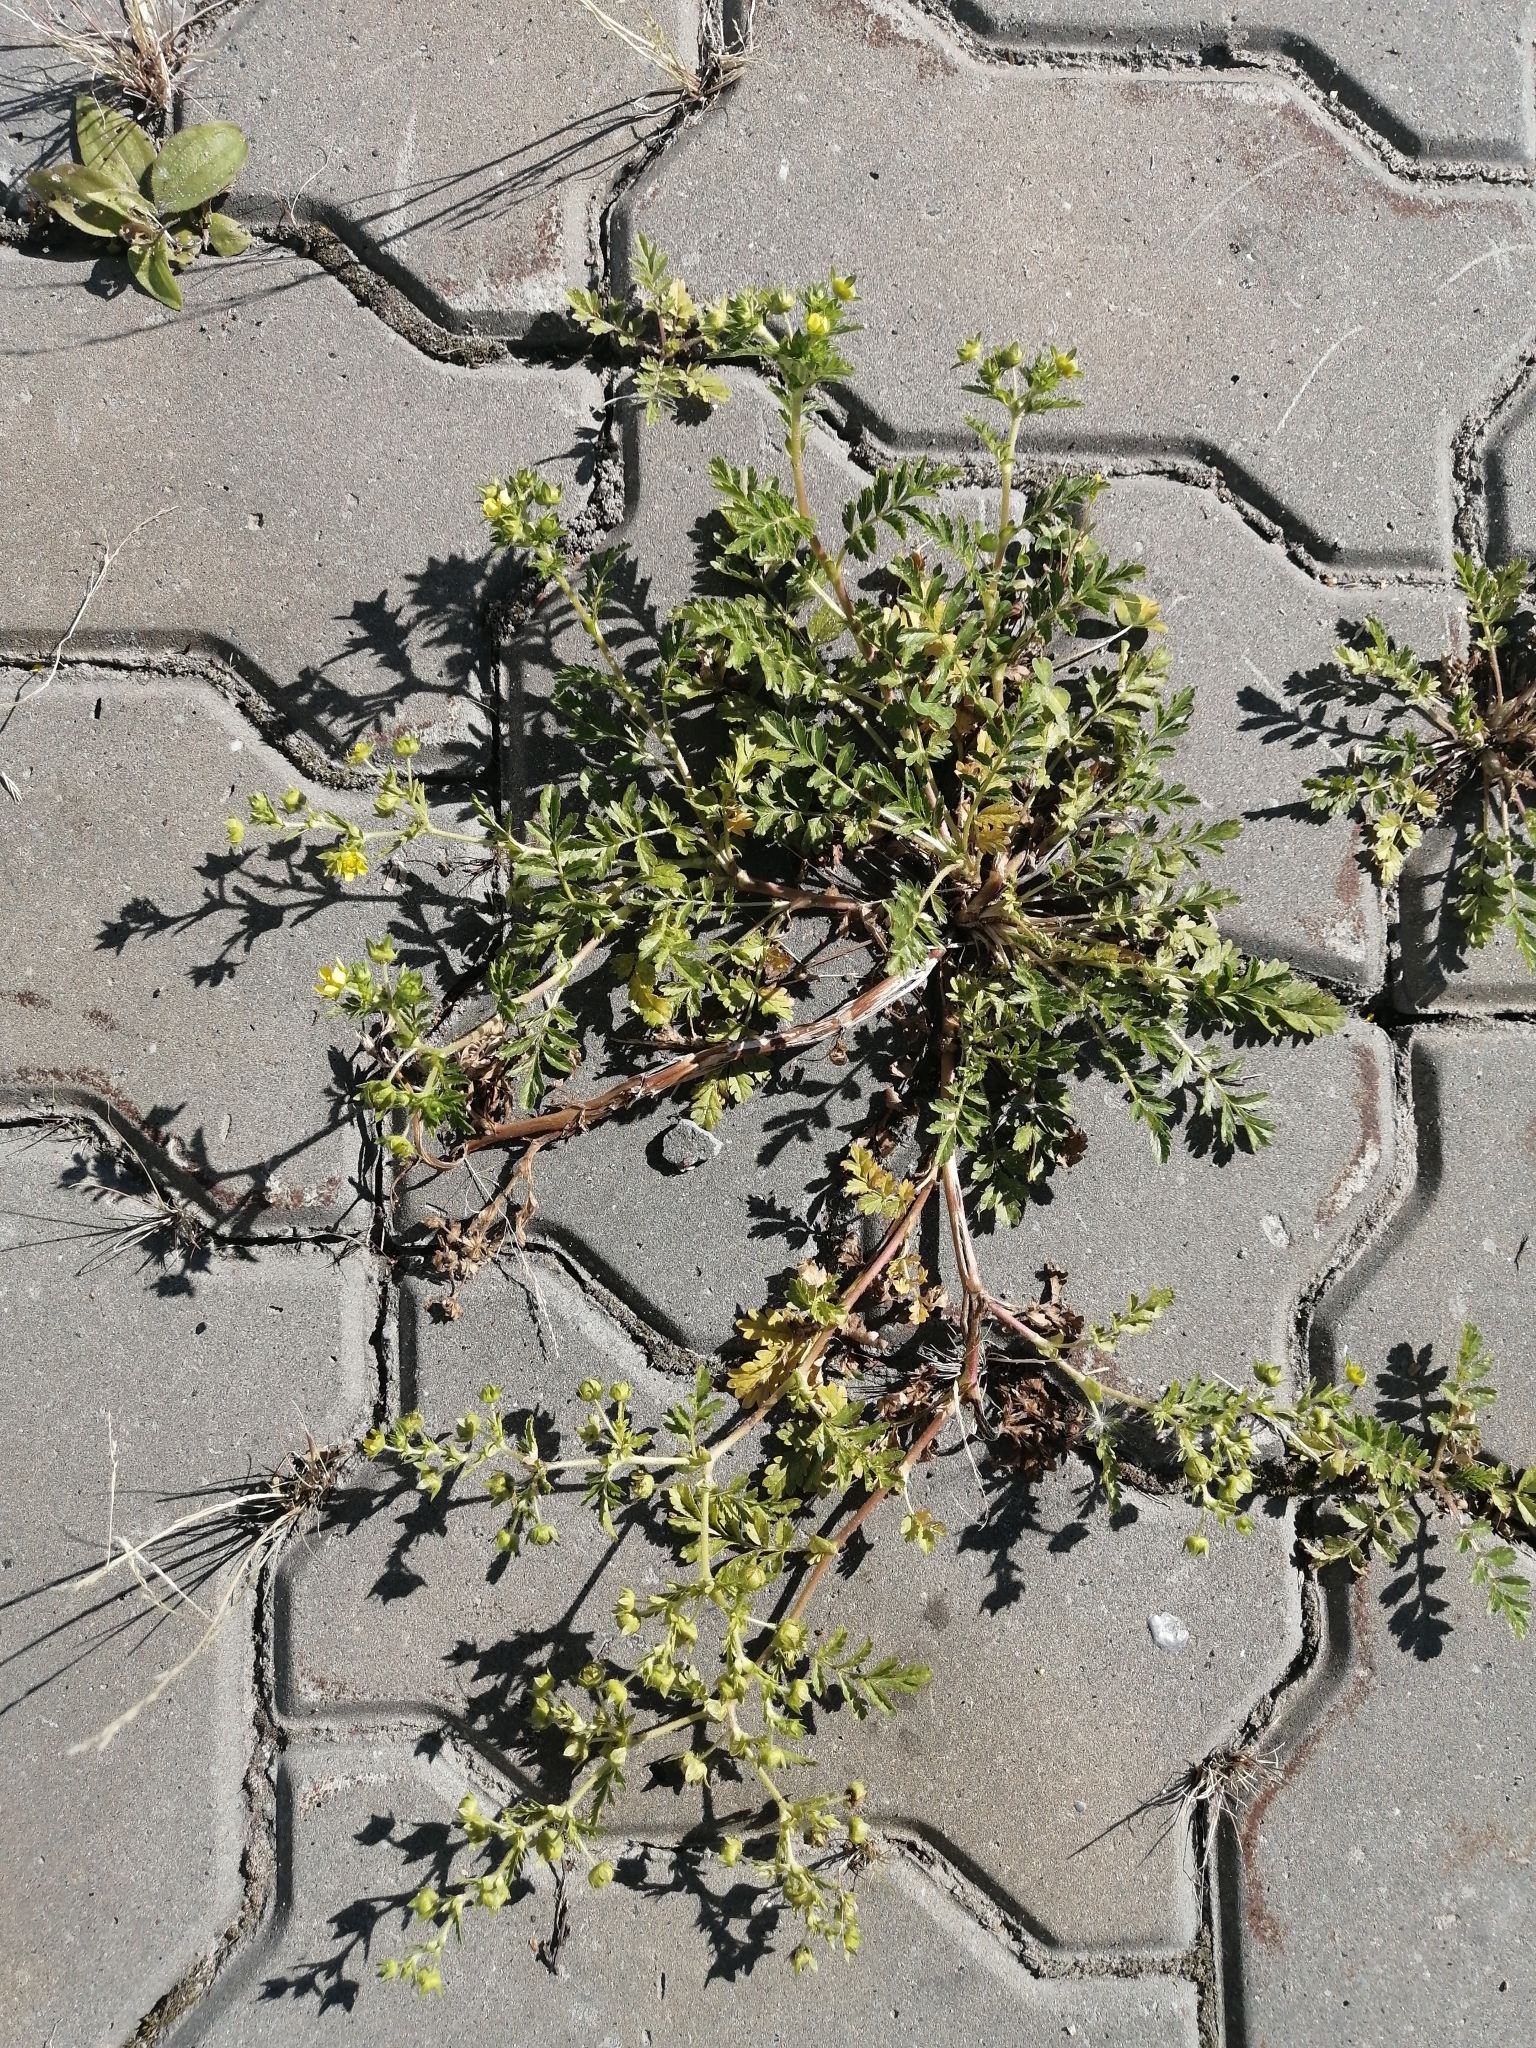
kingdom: Plantae
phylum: Tracheophyta
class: Magnoliopsida
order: Rosales
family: Rosaceae
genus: Potentilla
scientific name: Potentilla supina
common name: Prostrate cinquefoil
